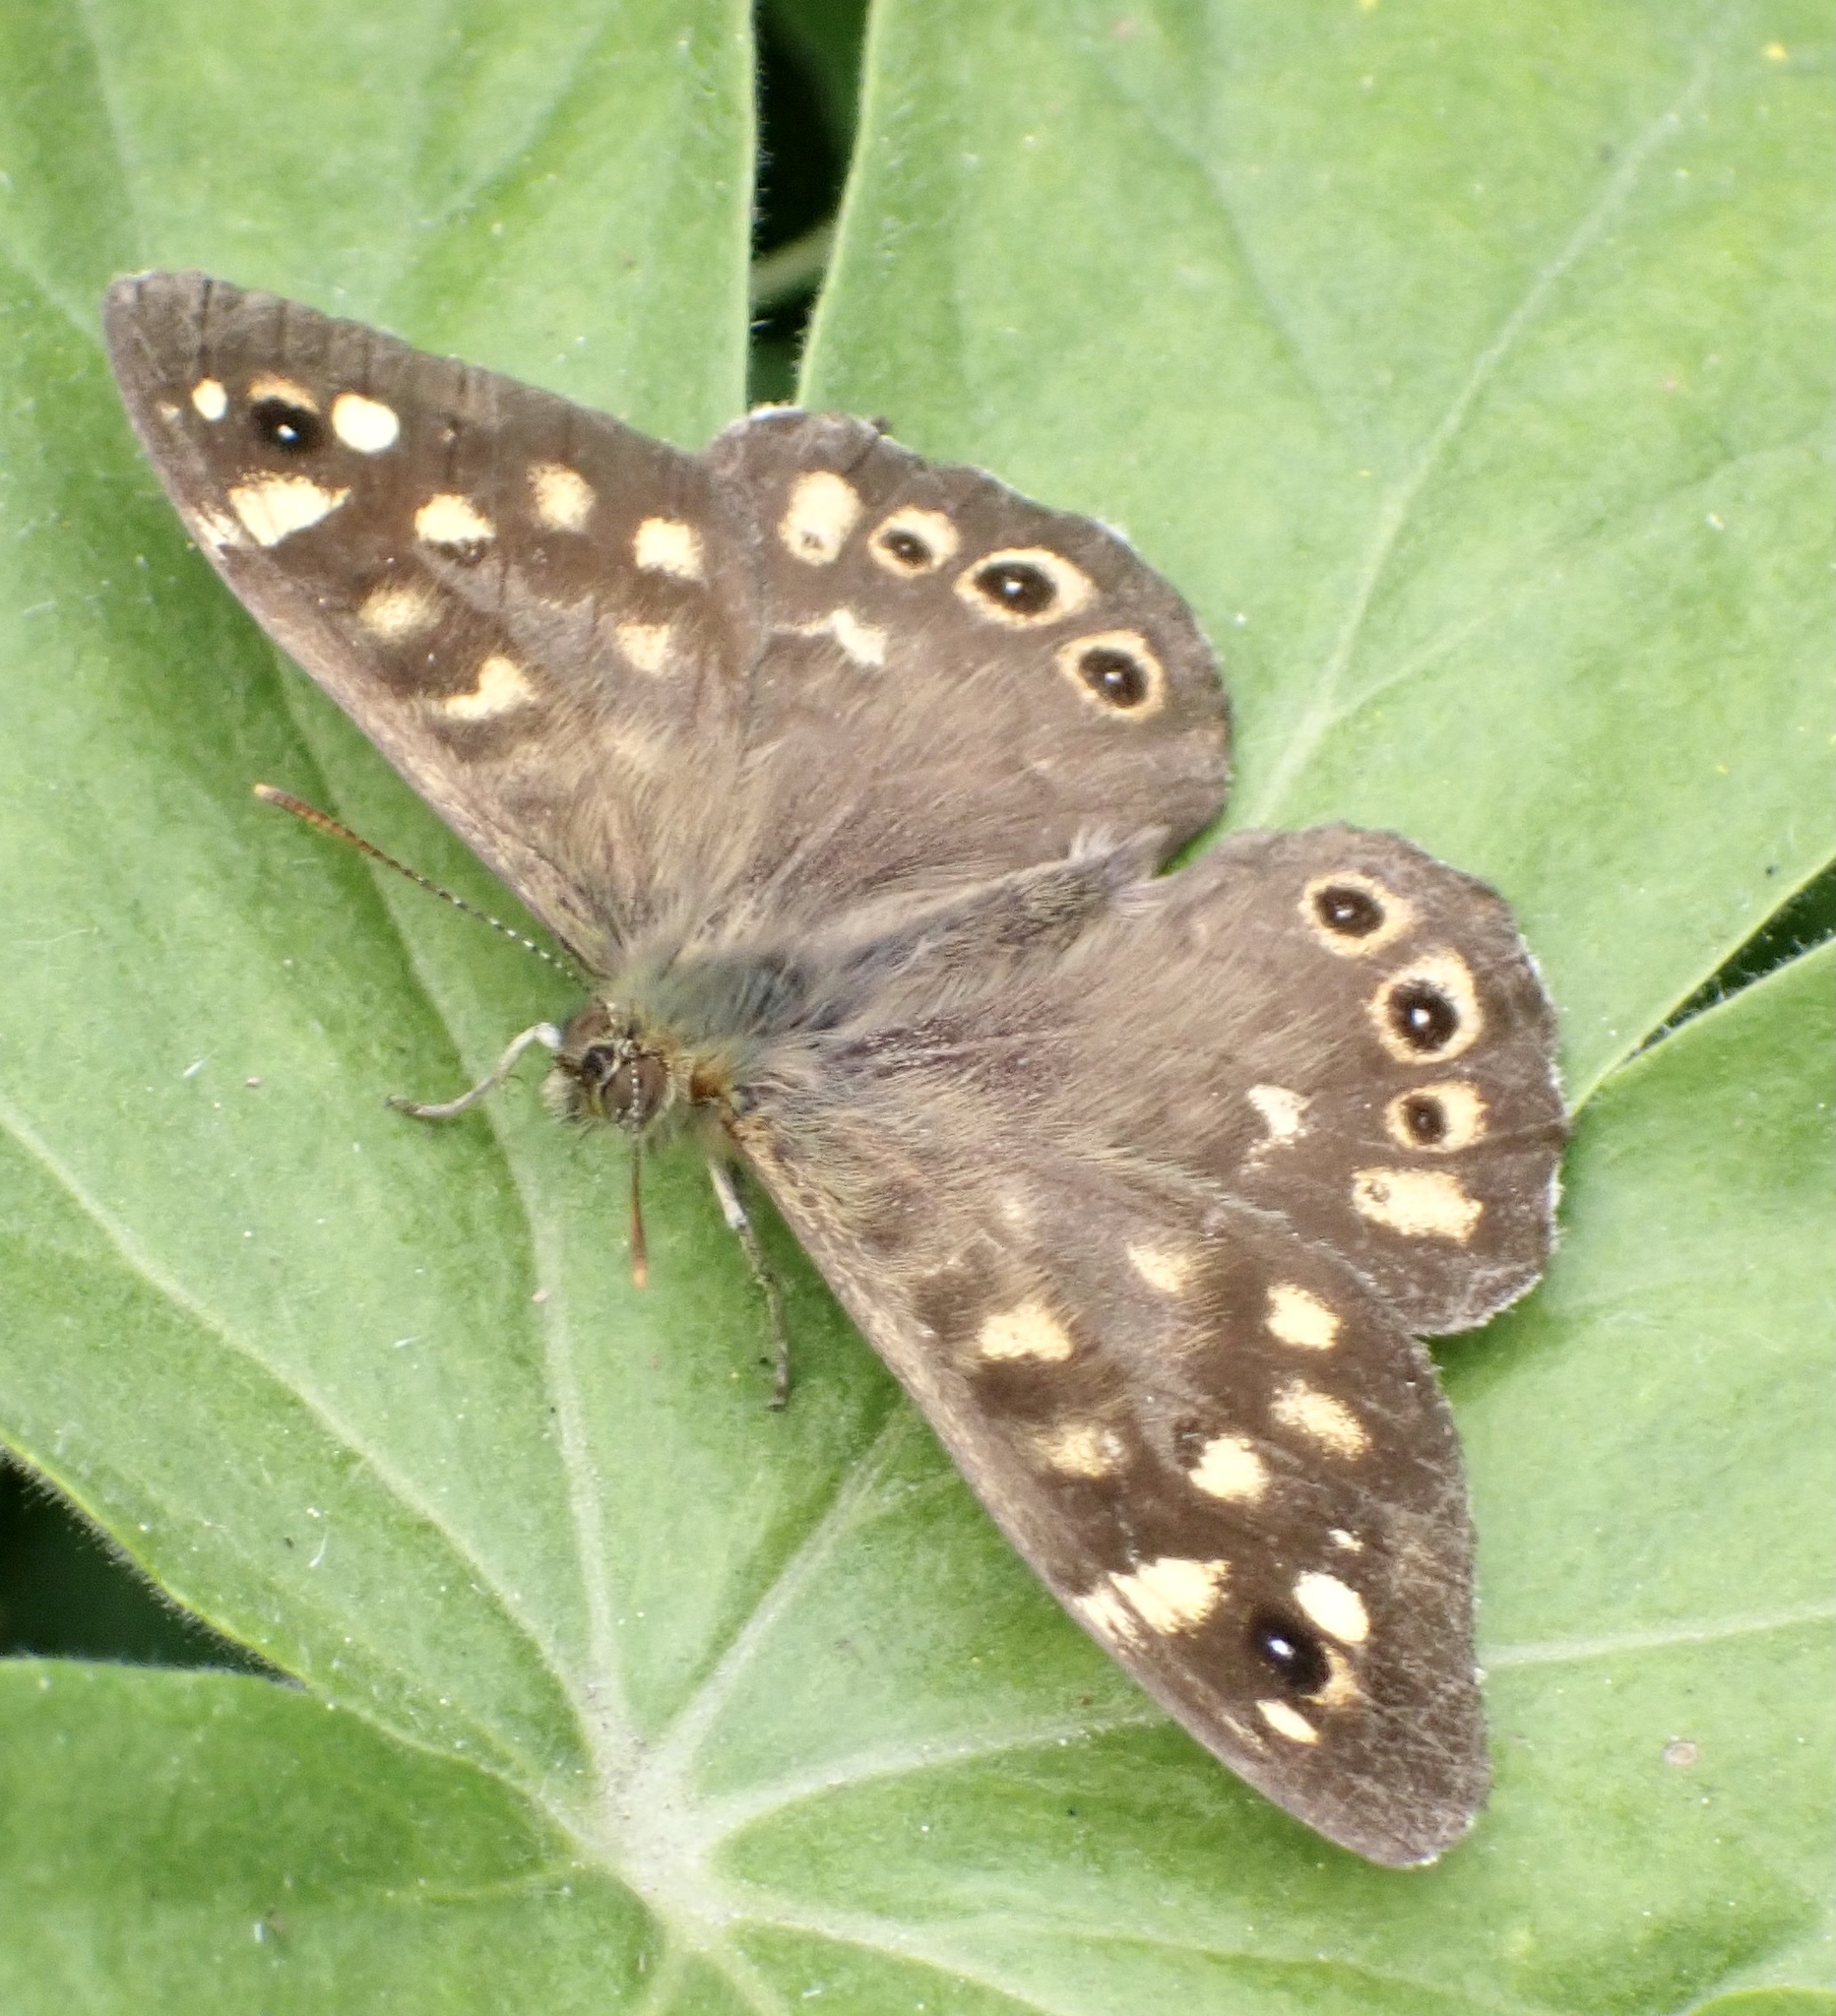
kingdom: Animalia
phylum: Arthropoda
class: Insecta
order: Lepidoptera
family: Nymphalidae
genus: Pararge
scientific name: Pararge aegeria
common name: Speckled wood
